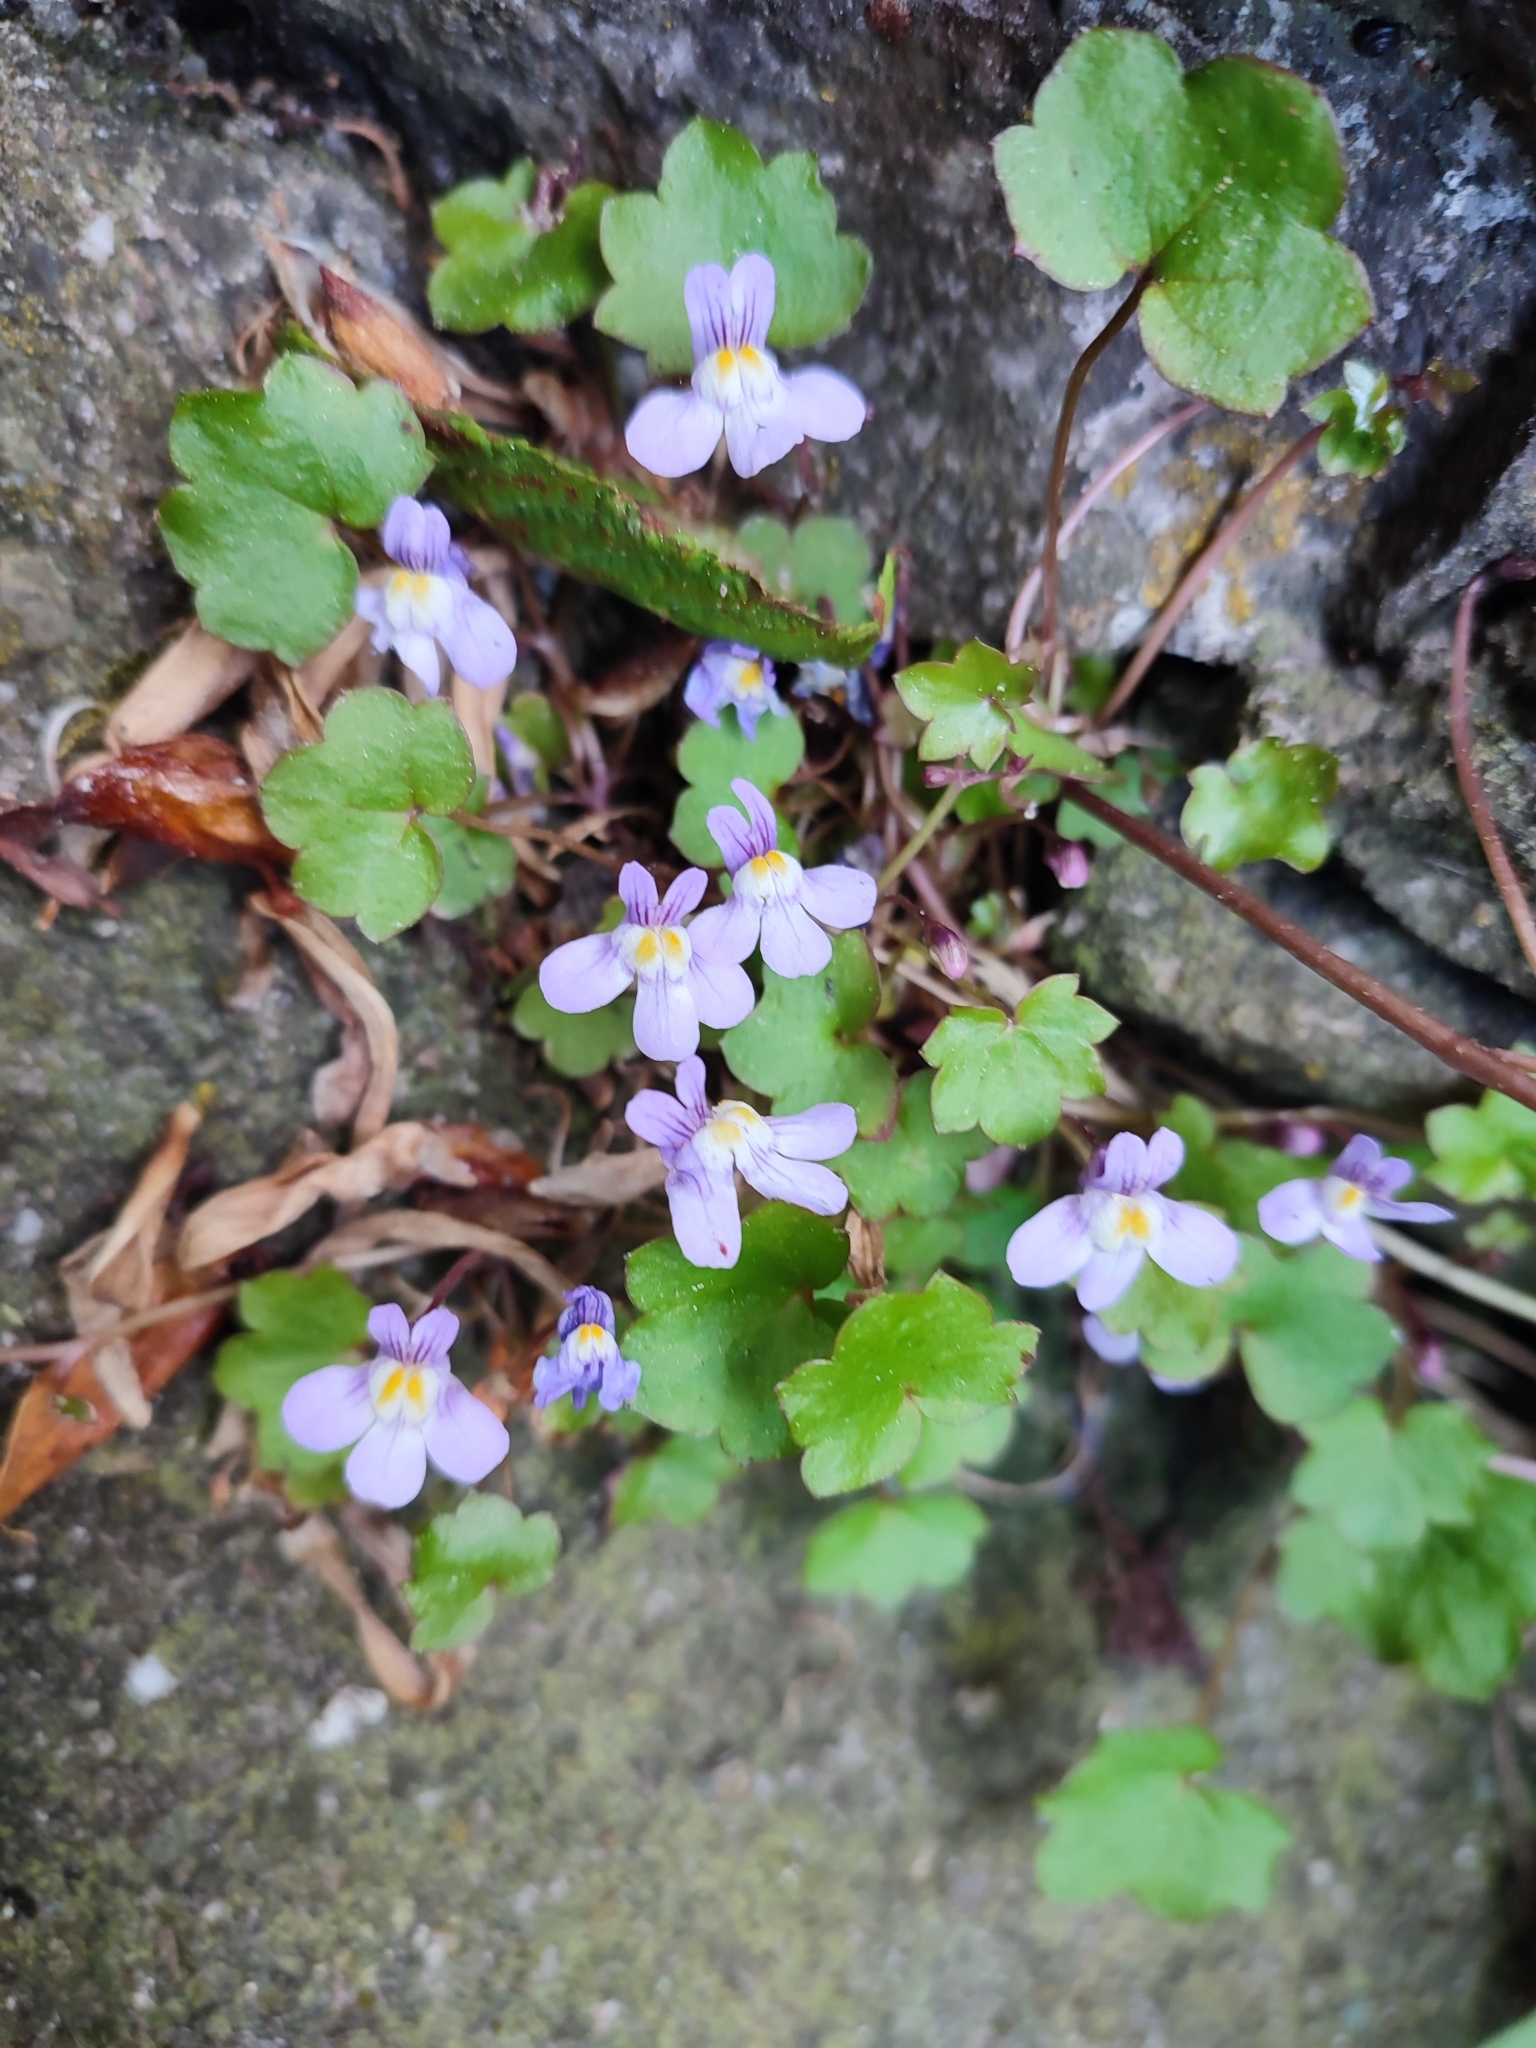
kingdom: Plantae
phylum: Tracheophyta
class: Magnoliopsida
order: Lamiales
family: Plantaginaceae
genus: Cymbalaria
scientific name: Cymbalaria muralis
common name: Ivy-leaved toadflax
